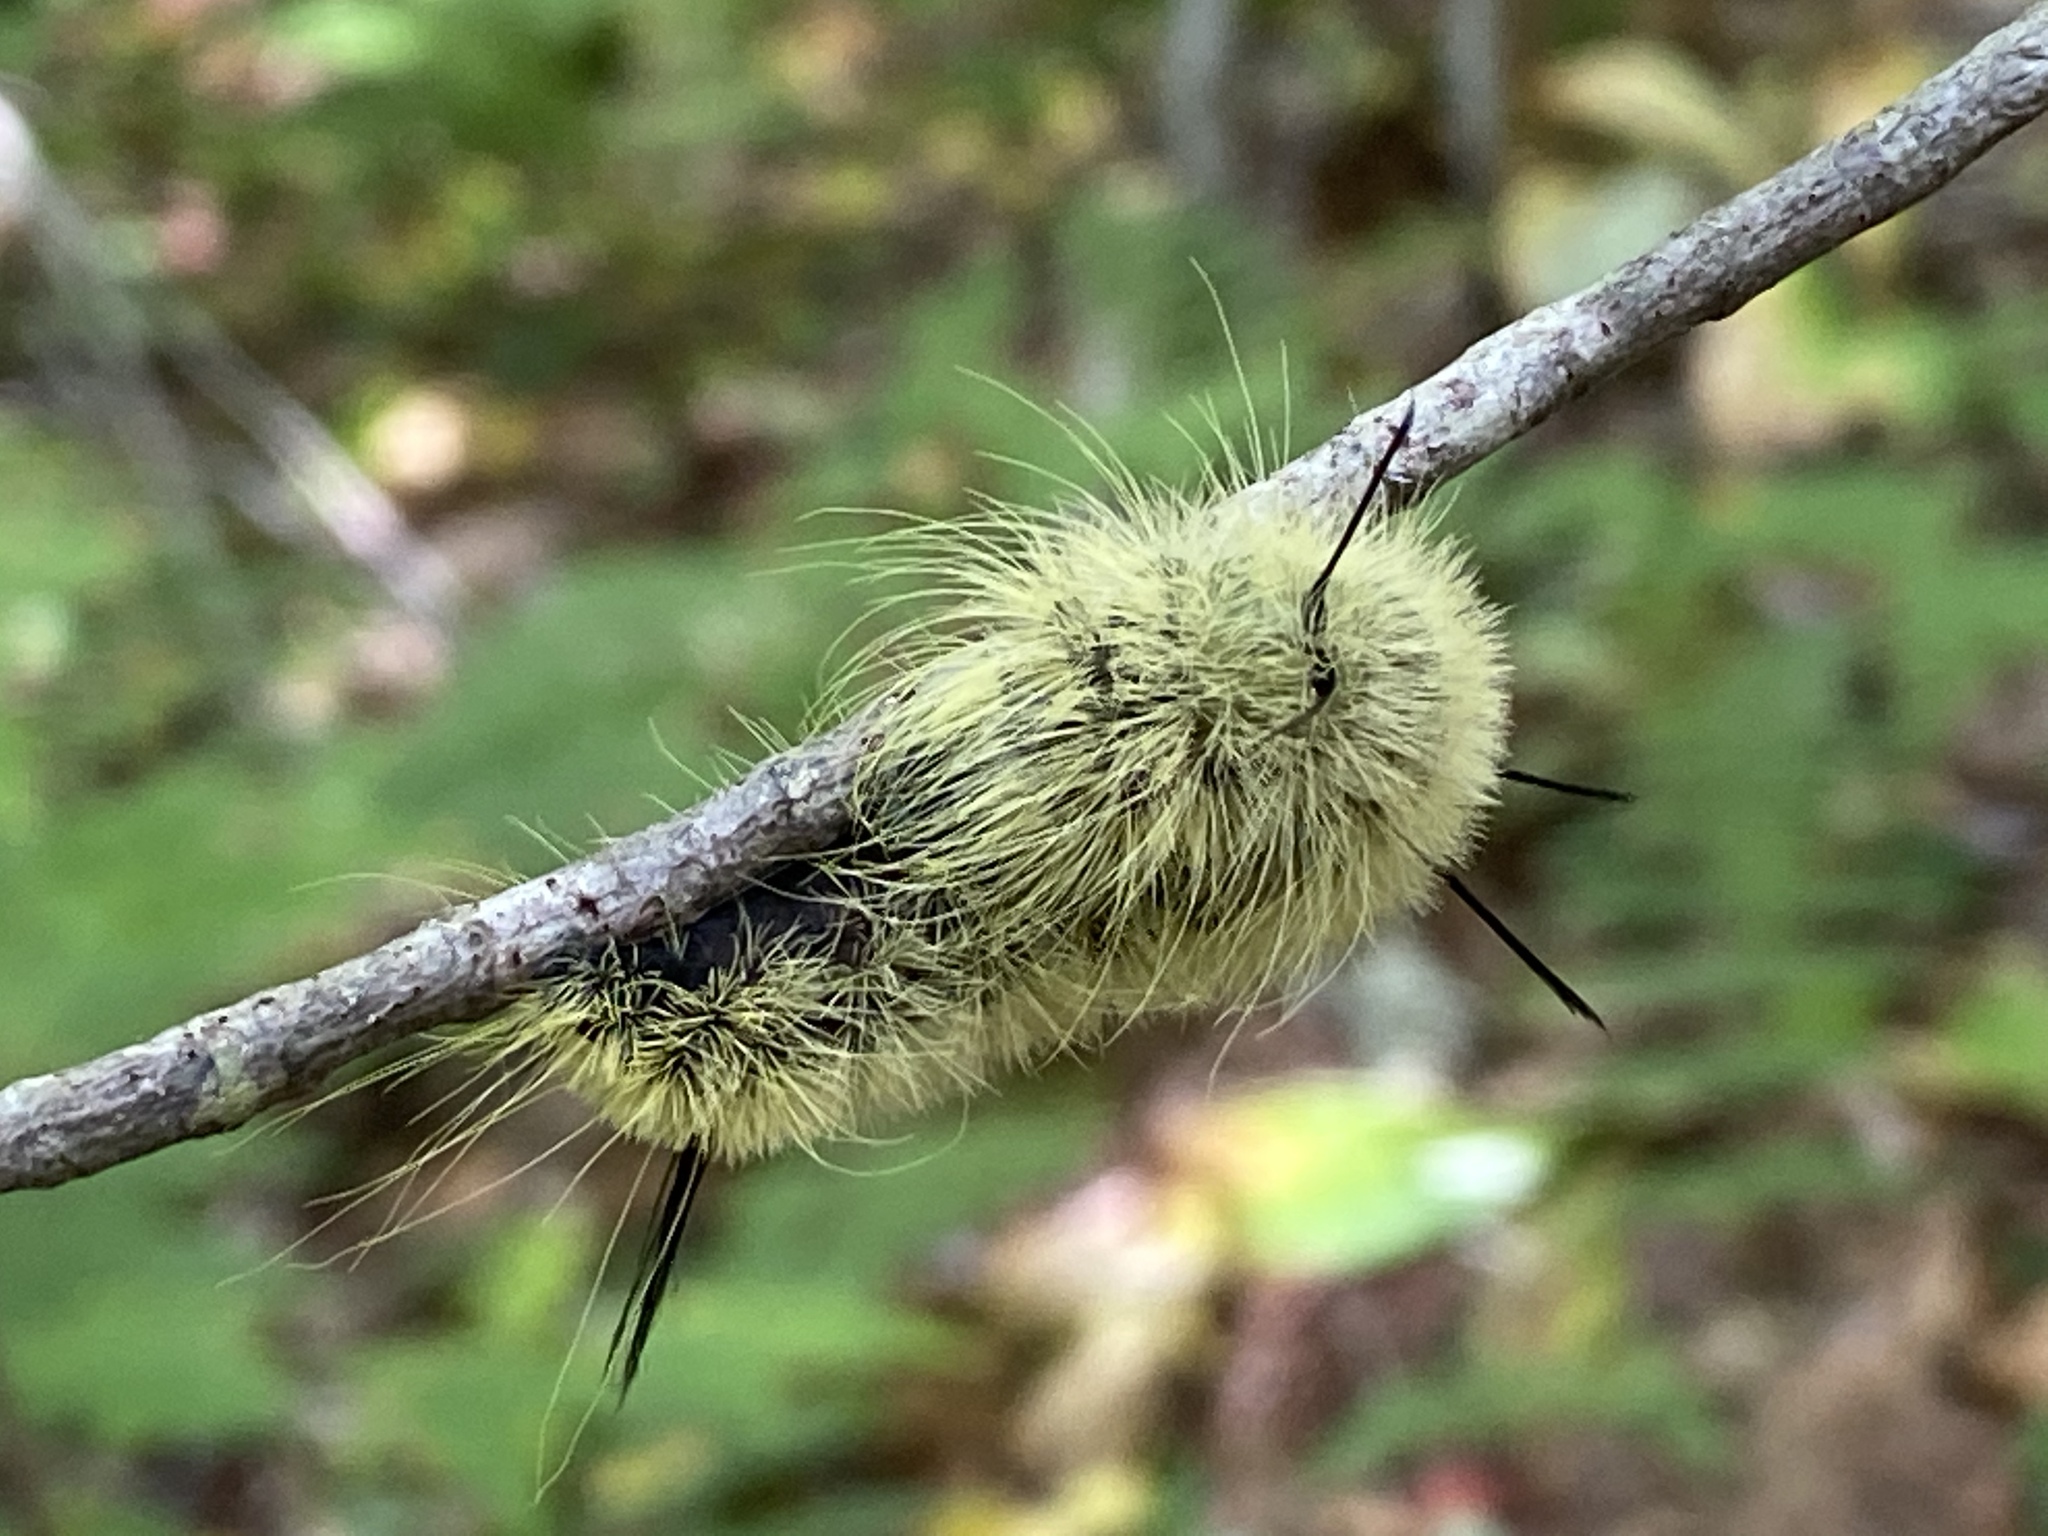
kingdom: Animalia
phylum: Arthropoda
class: Insecta
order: Lepidoptera
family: Noctuidae
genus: Acronicta
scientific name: Acronicta americana
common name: American dagger
